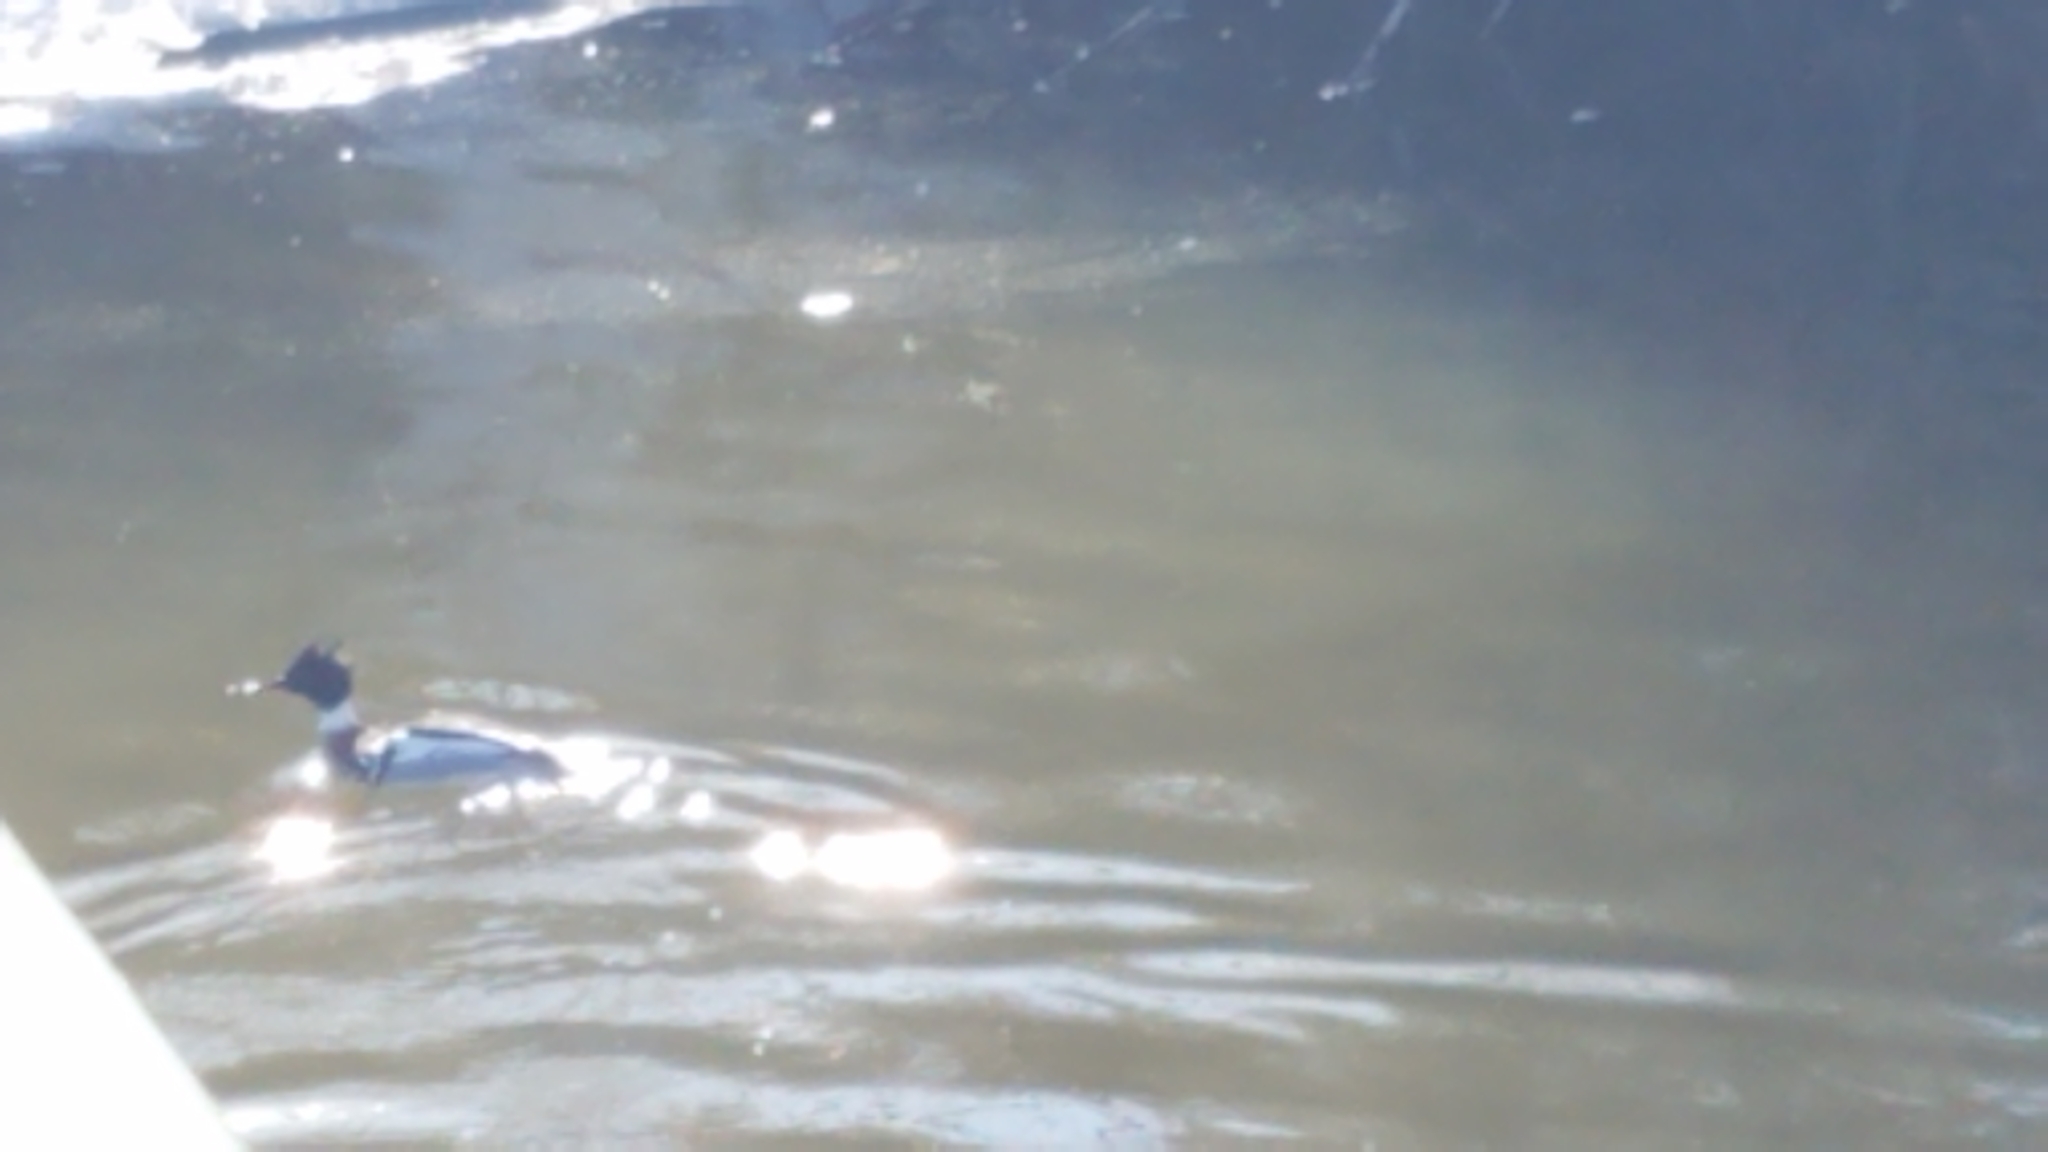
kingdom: Animalia
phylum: Chordata
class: Aves
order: Anseriformes
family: Anatidae
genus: Mergus
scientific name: Mergus serrator
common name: Red-breasted merganser
